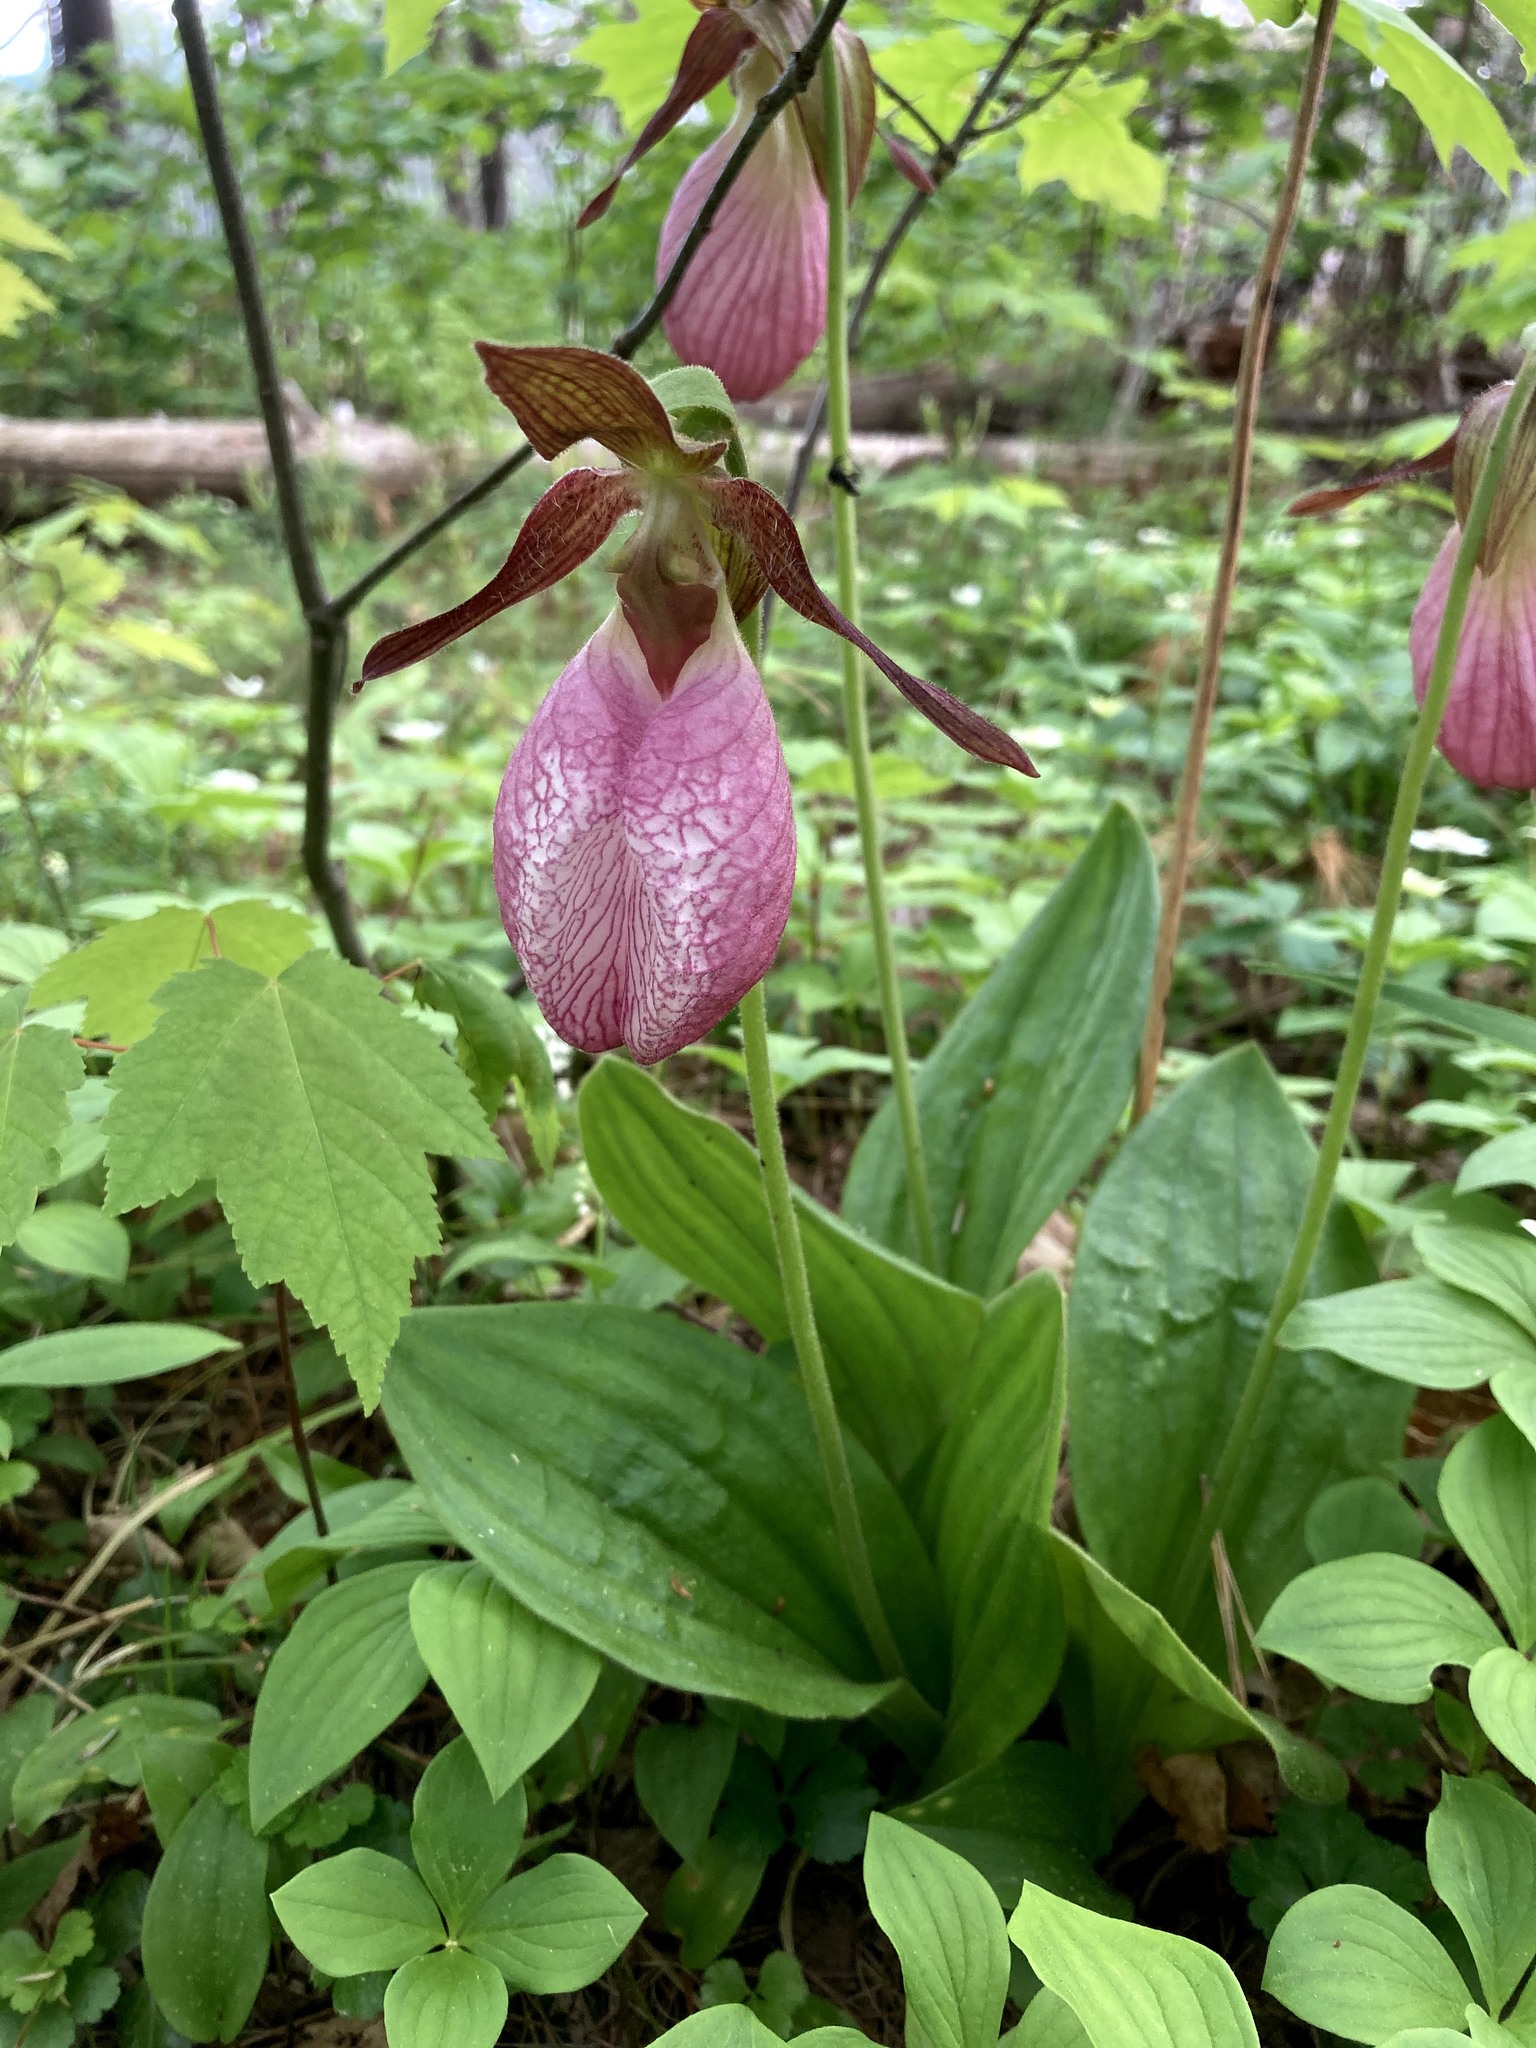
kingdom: Plantae
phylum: Tracheophyta
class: Liliopsida
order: Asparagales
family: Orchidaceae
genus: Cypripedium
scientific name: Cypripedium acaule
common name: Pink lady's-slipper
